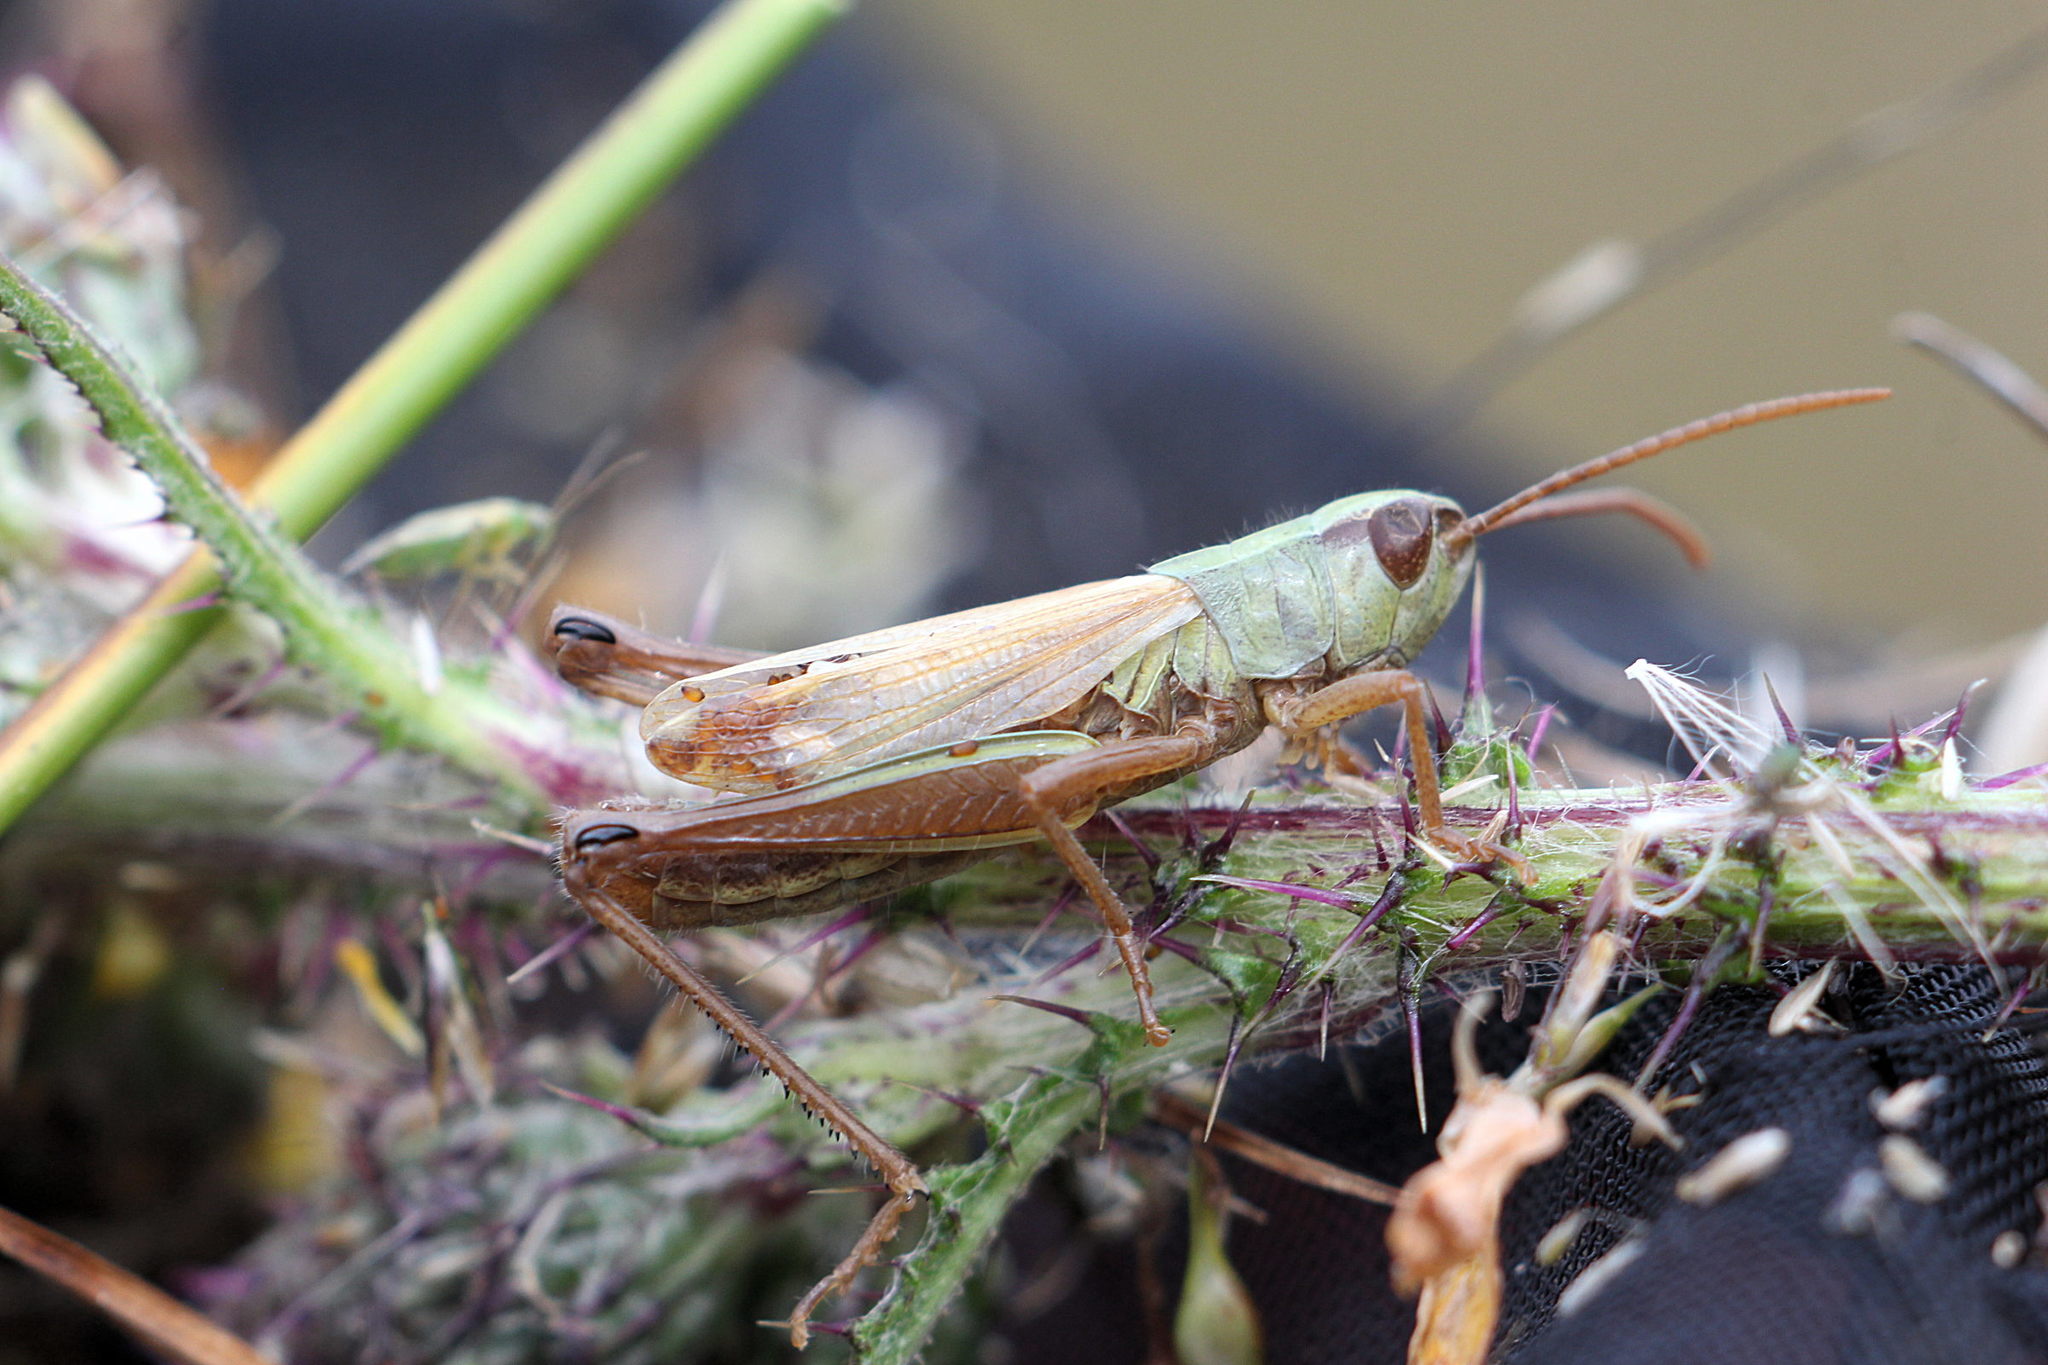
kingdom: Animalia
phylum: Arthropoda
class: Insecta
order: Orthoptera
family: Acrididae
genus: Pseudochorthippus
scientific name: Pseudochorthippus parallelus
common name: Meadow grasshopper
